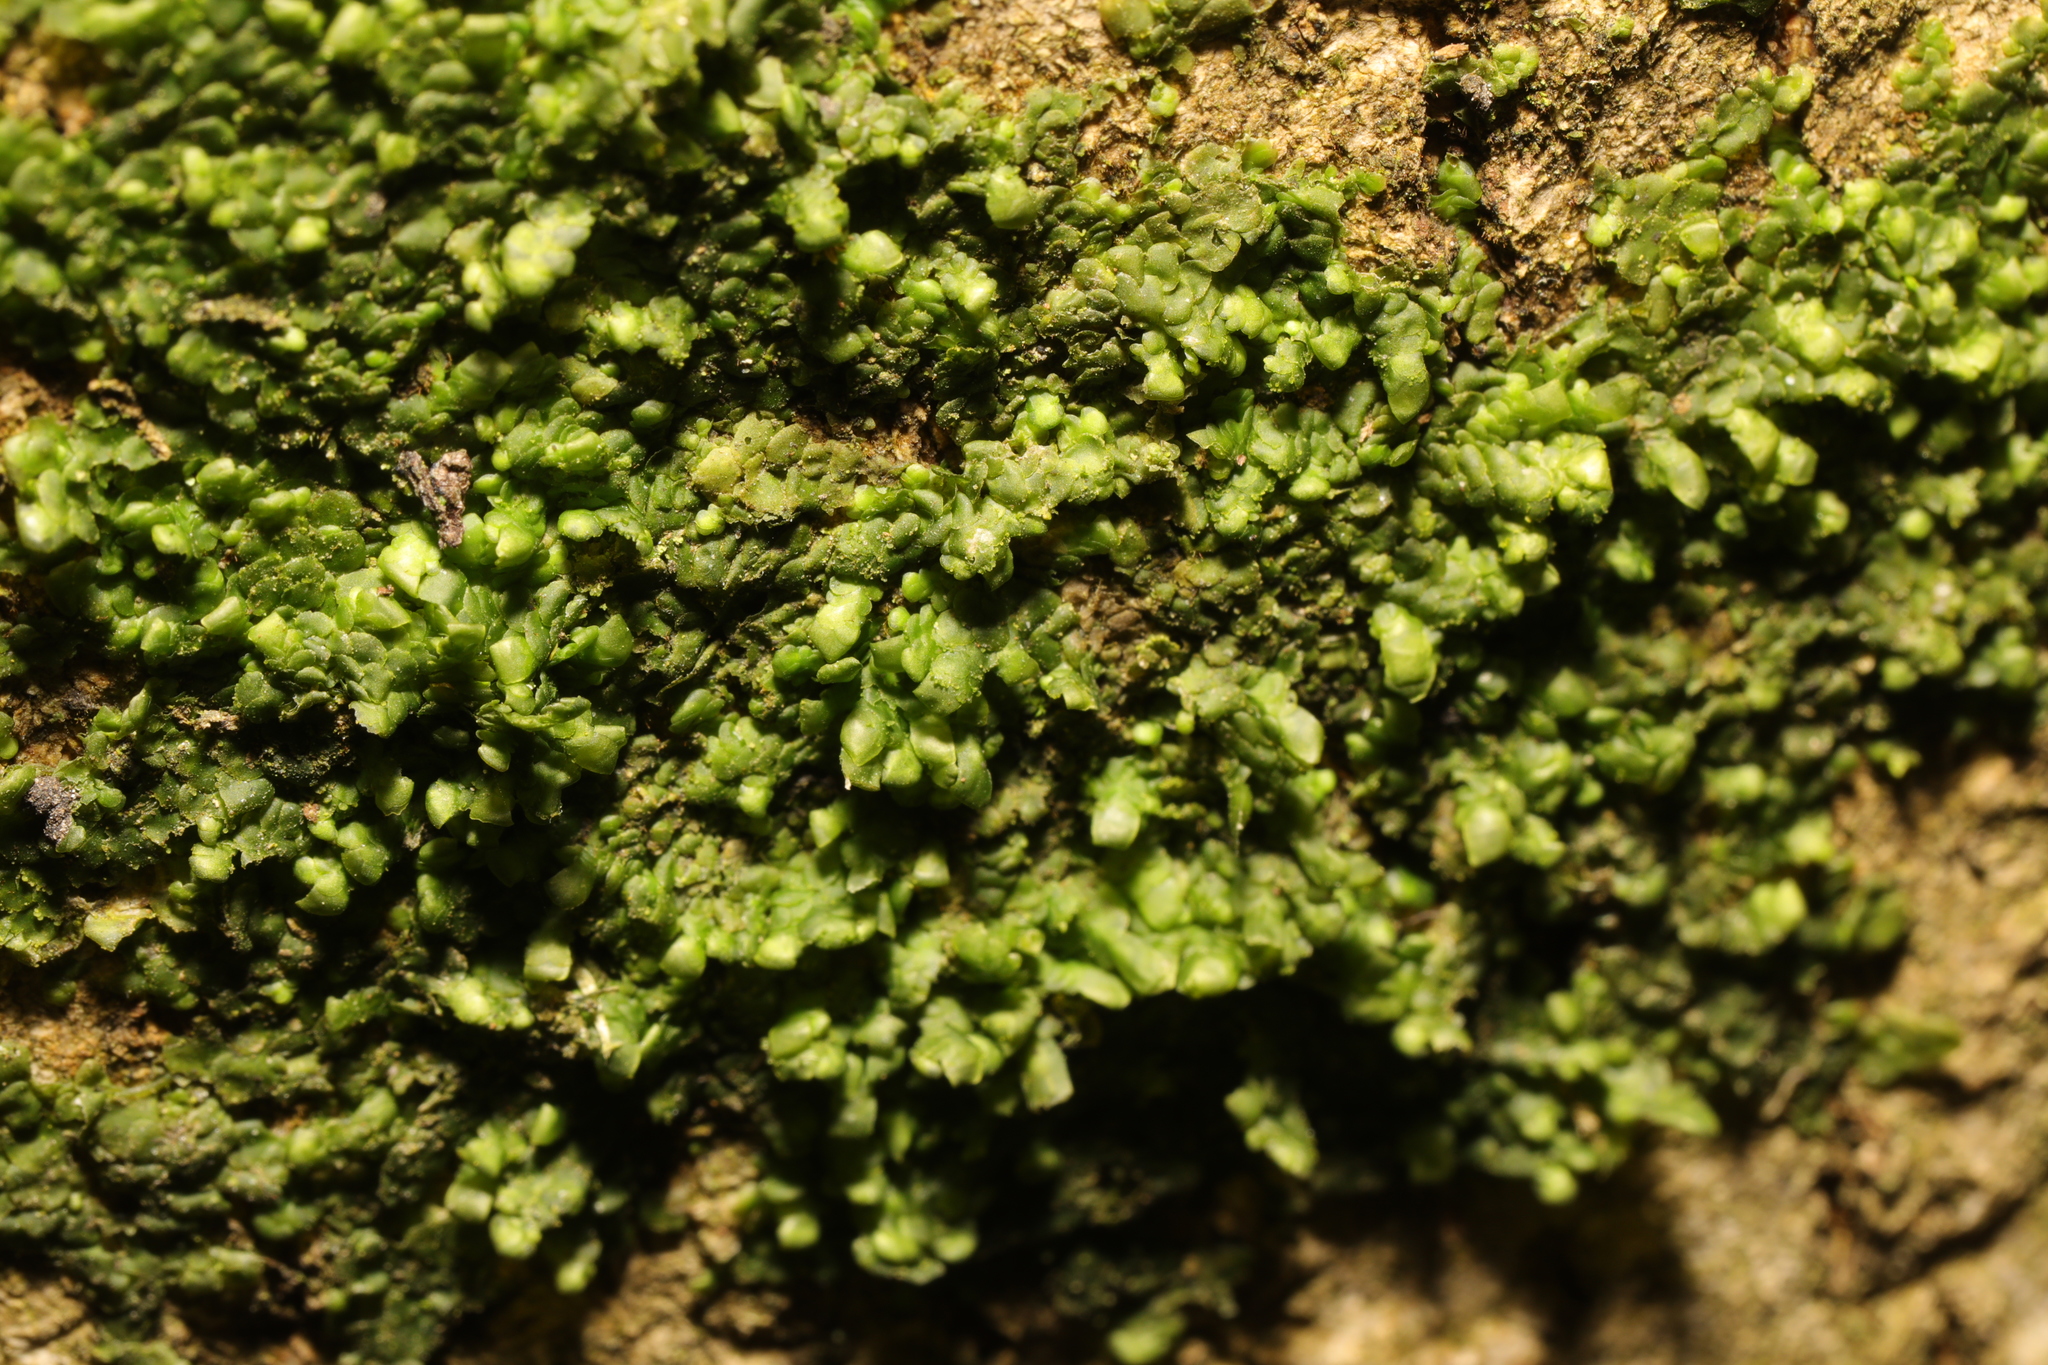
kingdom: Plantae
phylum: Marchantiophyta
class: Jungermanniopsida
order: Porellales
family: Radulaceae
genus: Radula
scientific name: Radula complanata
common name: Flat-leaved scalewort
